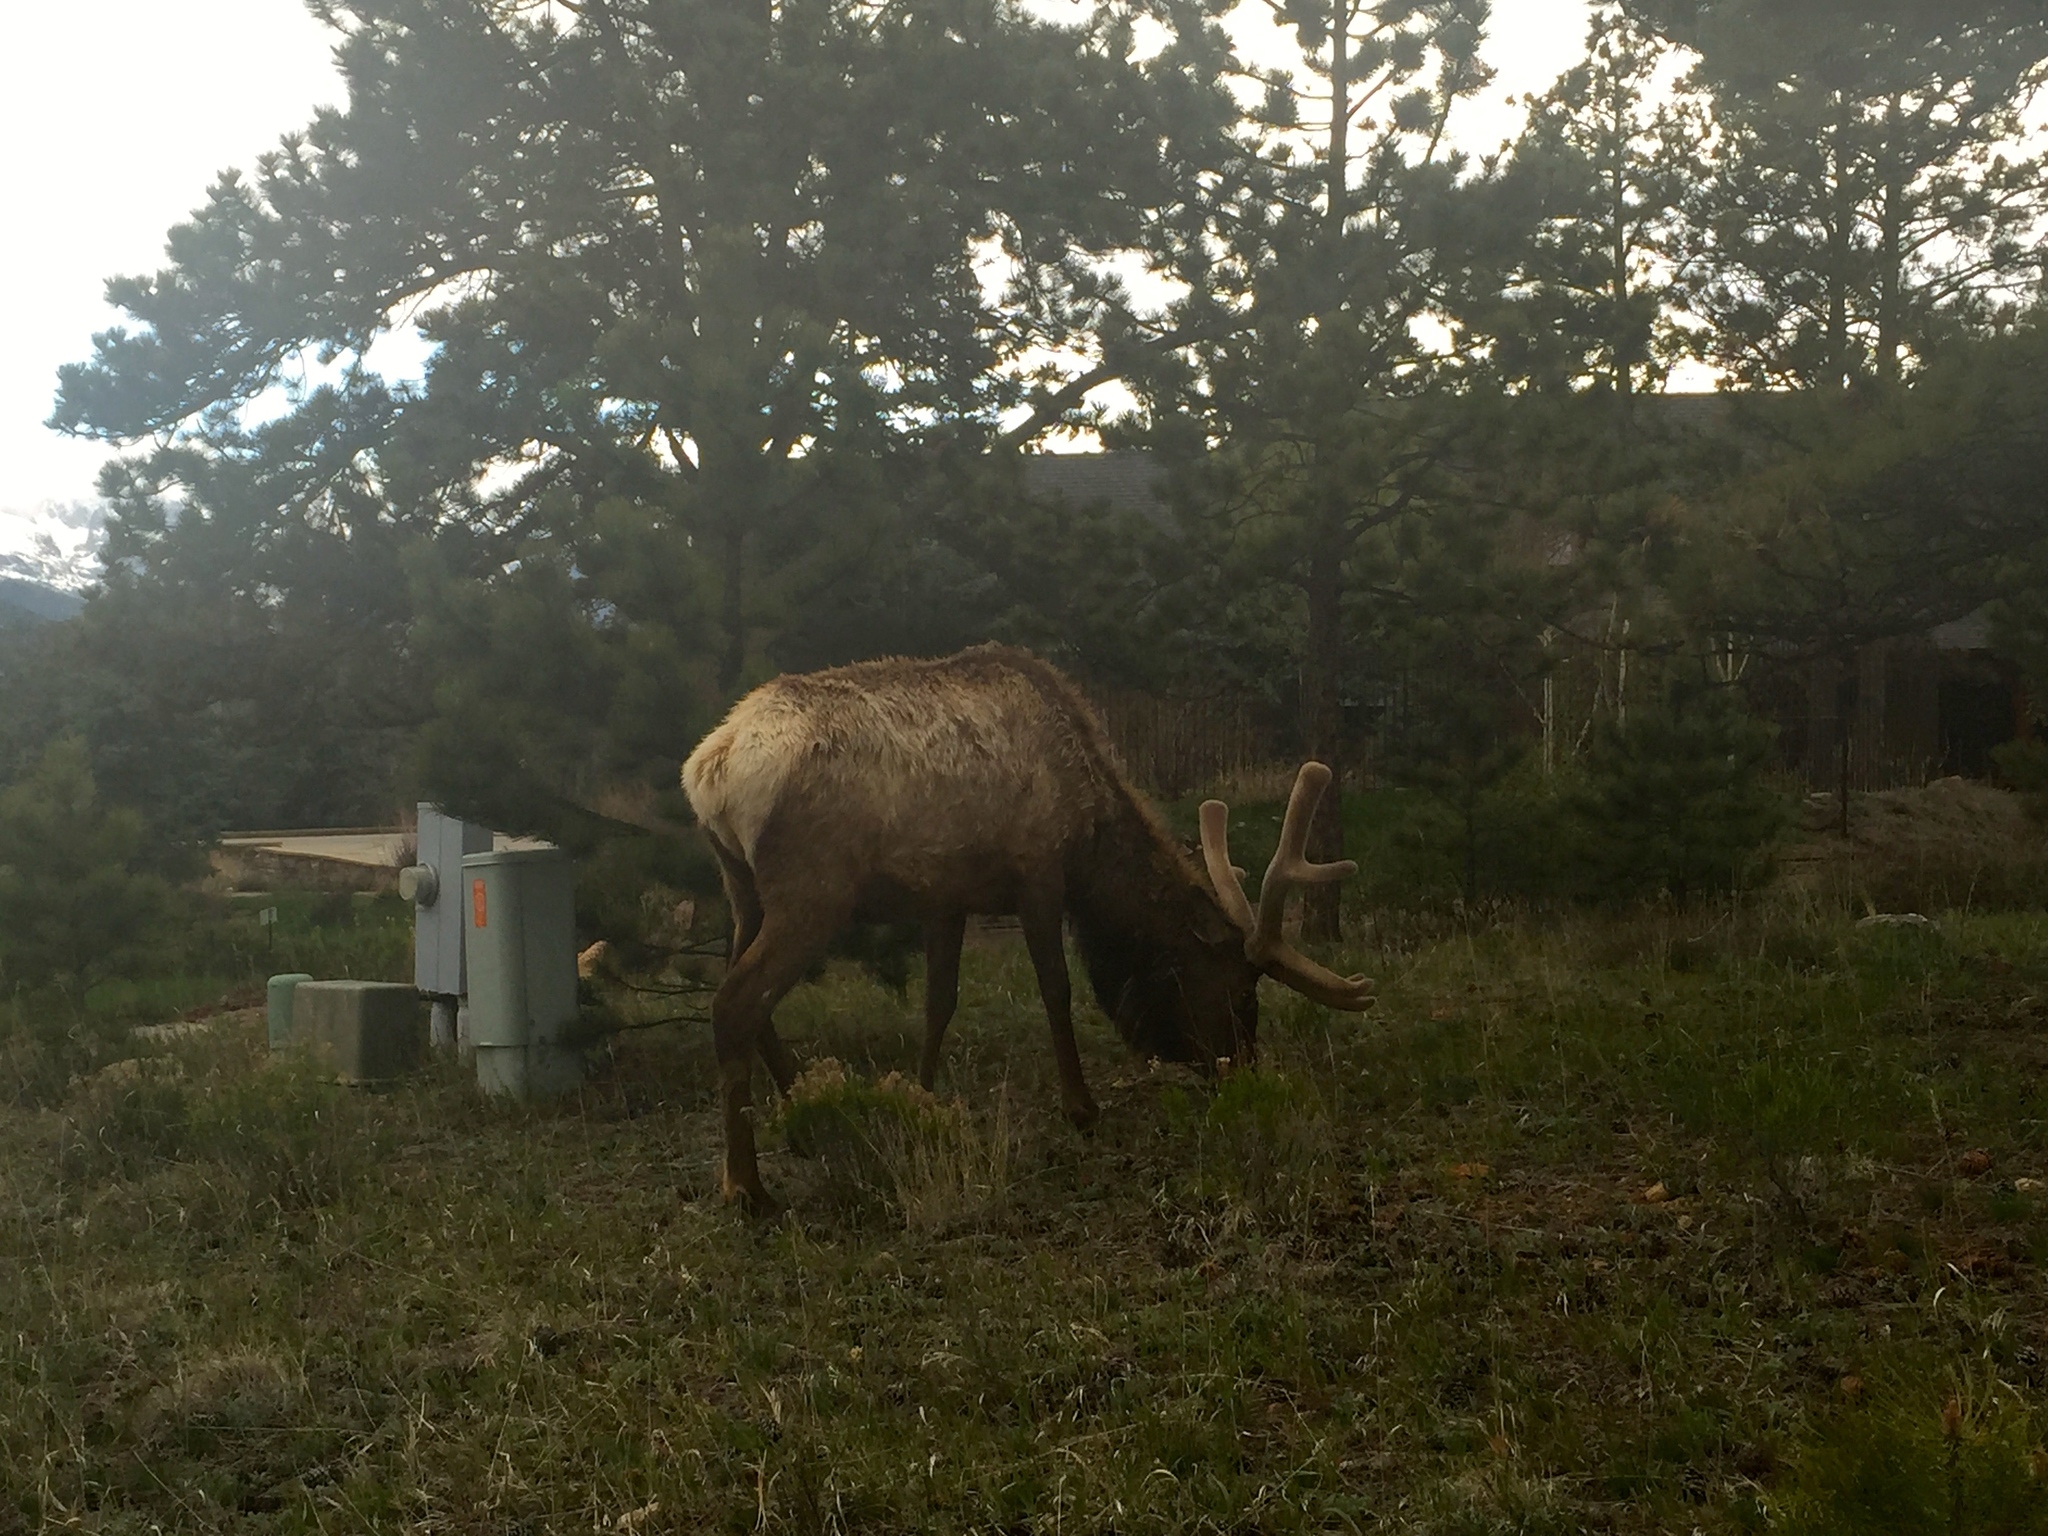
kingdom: Animalia
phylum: Chordata
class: Mammalia
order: Artiodactyla
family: Cervidae
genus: Cervus
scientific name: Cervus elaphus
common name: Red deer
